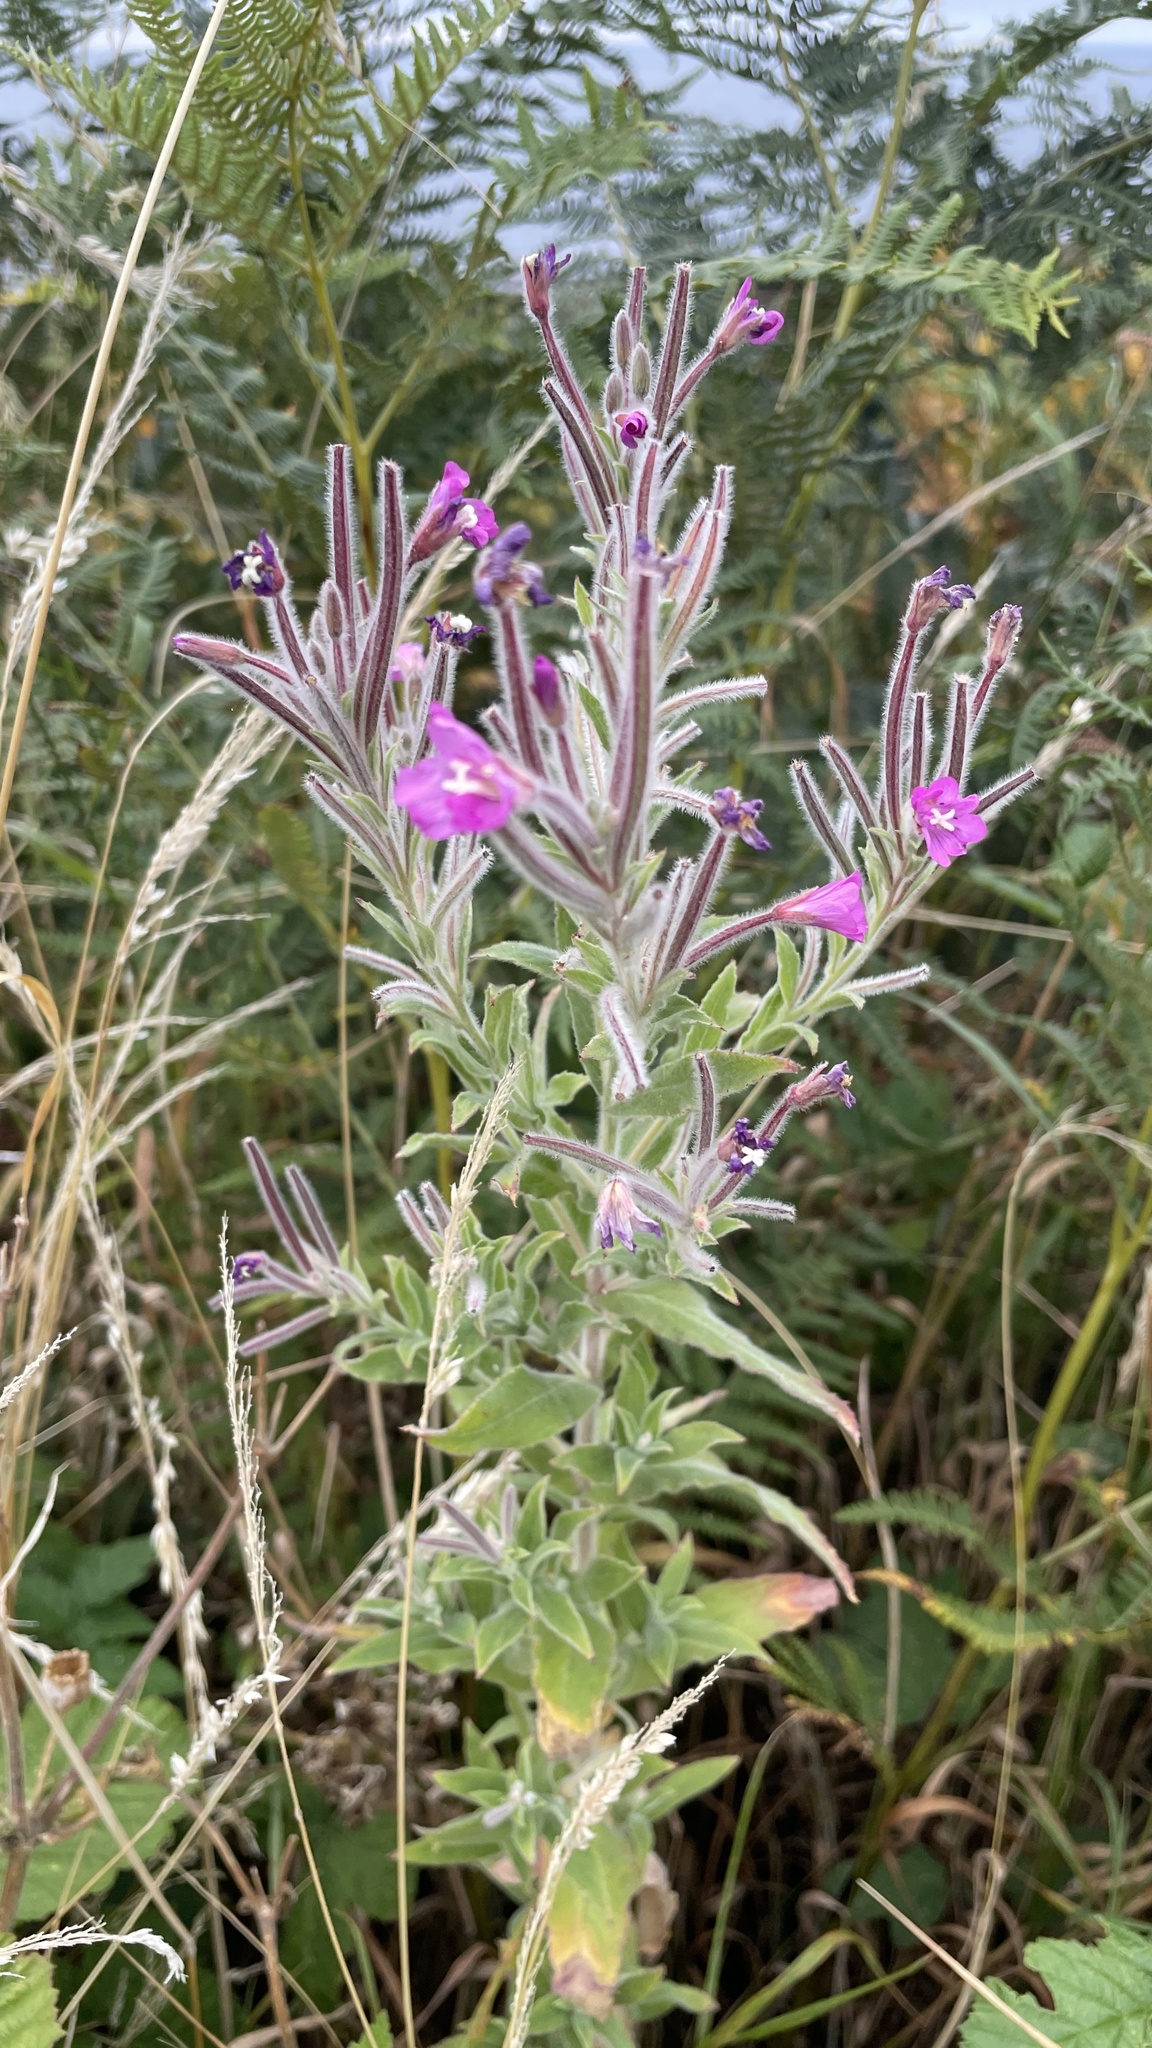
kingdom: Plantae
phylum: Tracheophyta
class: Magnoliopsida
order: Myrtales
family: Onagraceae
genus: Epilobium
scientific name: Epilobium hirsutum
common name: Great willowherb
